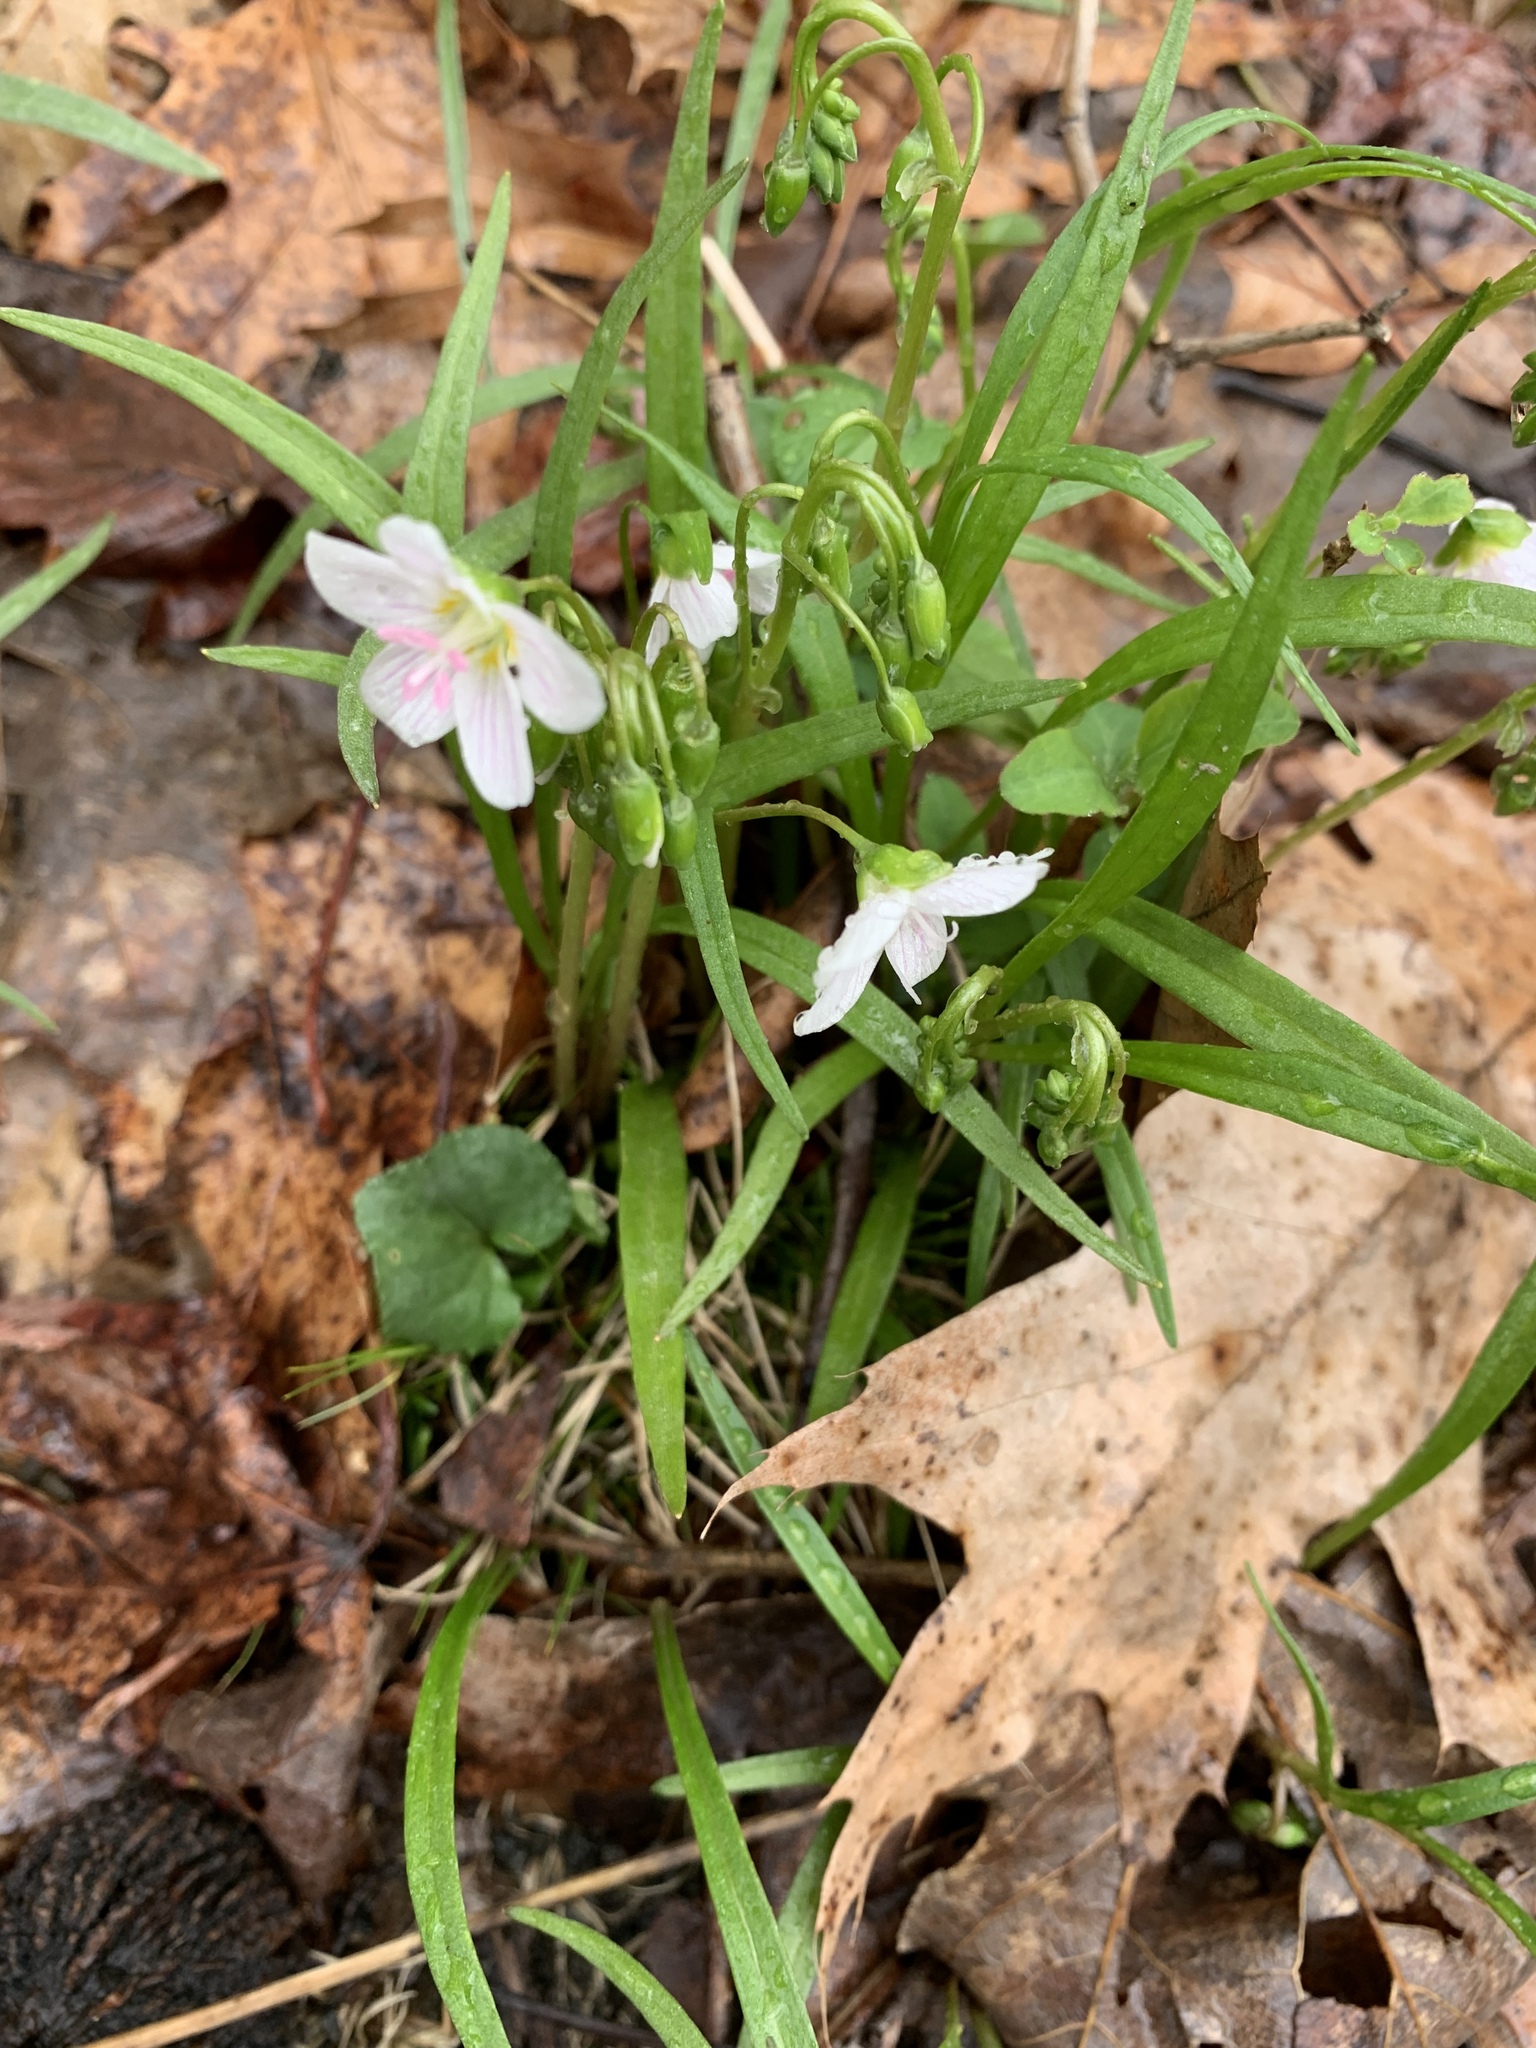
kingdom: Plantae
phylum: Tracheophyta
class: Magnoliopsida
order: Caryophyllales
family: Montiaceae
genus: Claytonia
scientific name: Claytonia virginica
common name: Virginia springbeauty
